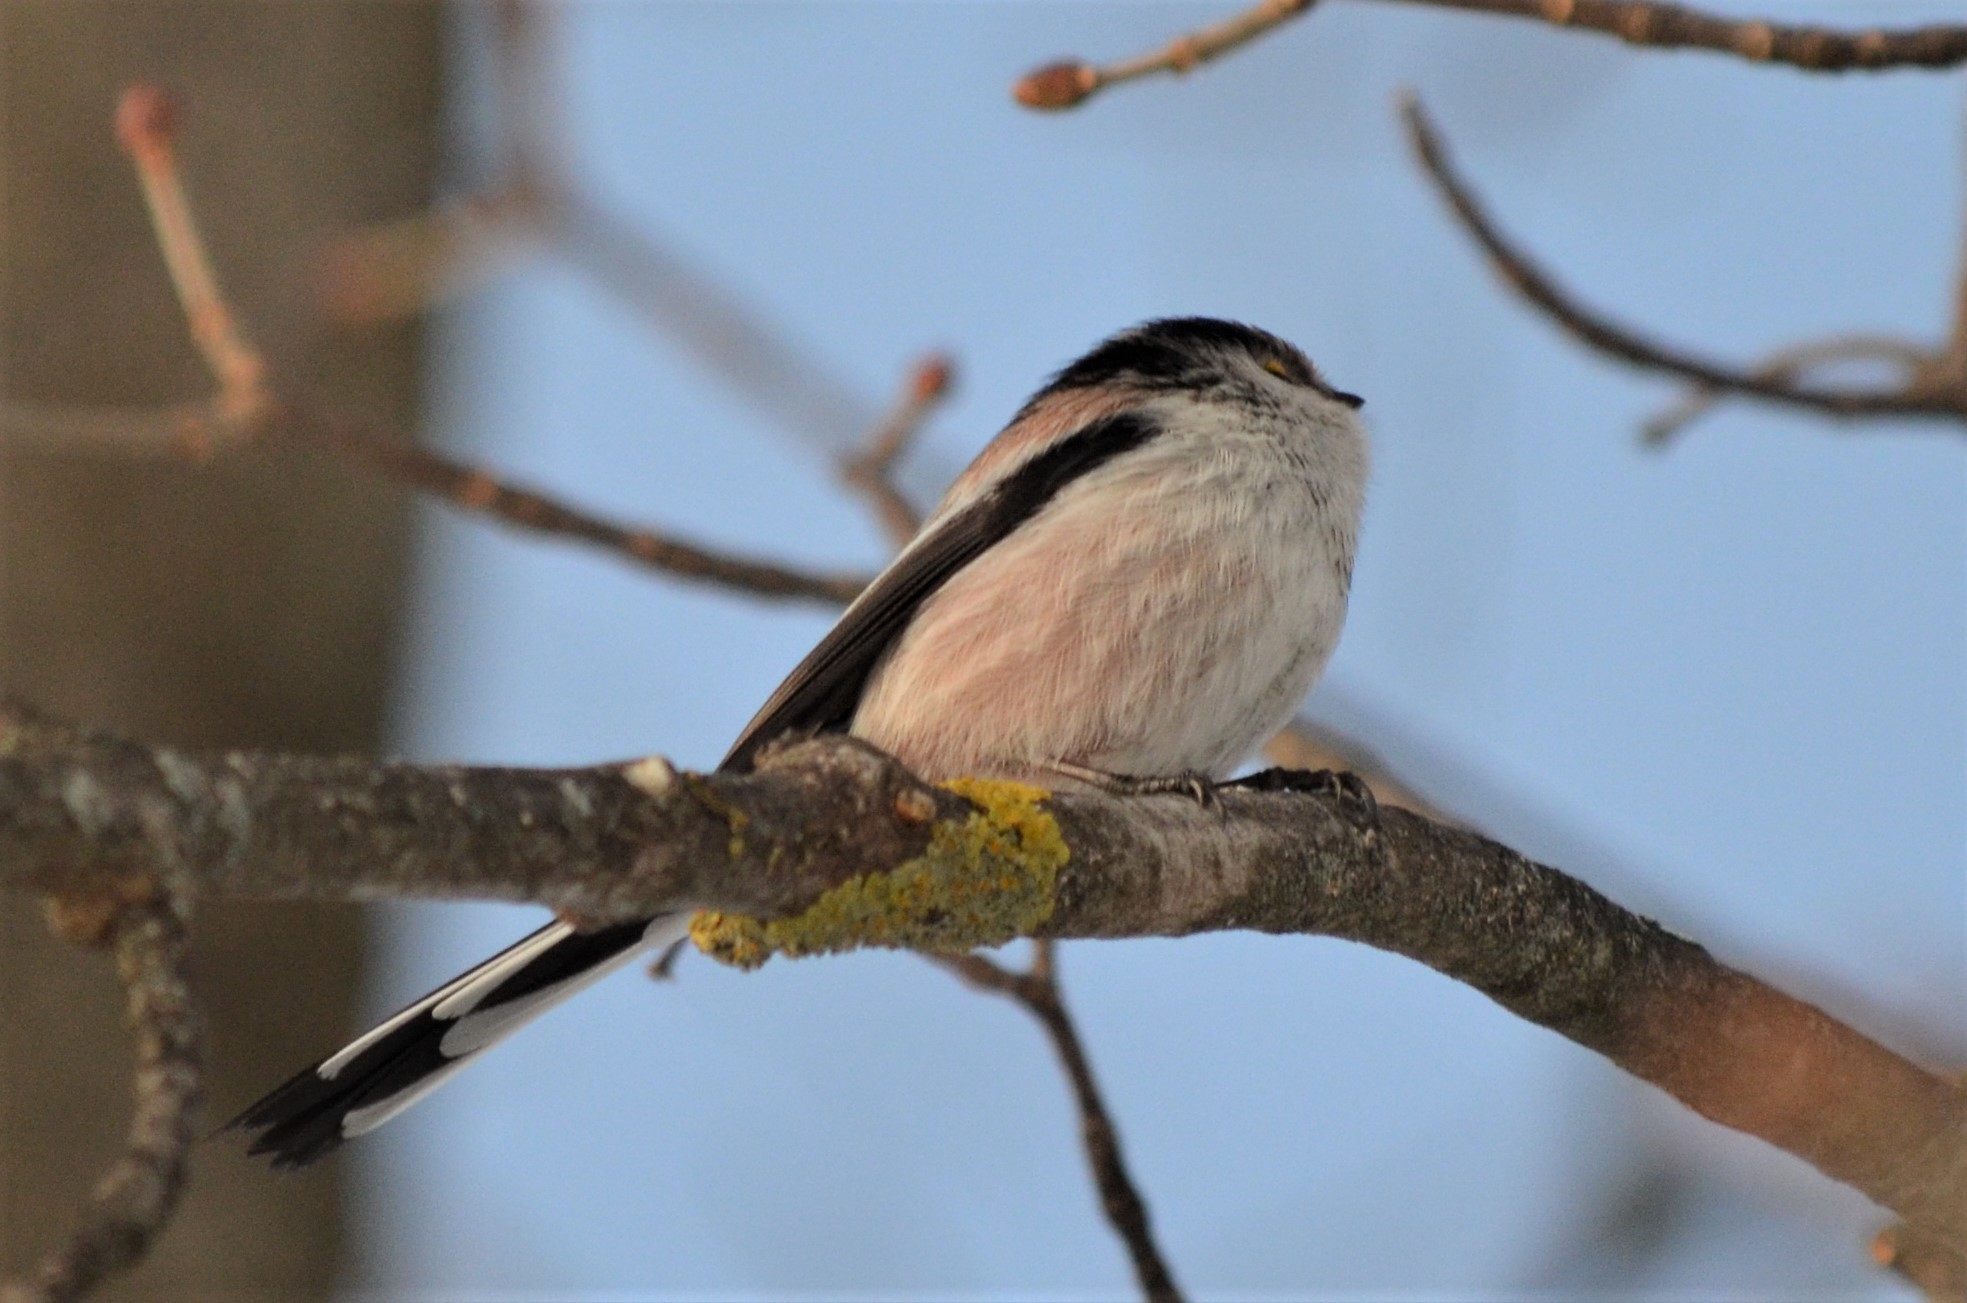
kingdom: Animalia
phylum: Chordata
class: Aves
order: Passeriformes
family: Aegithalidae
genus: Aegithalos
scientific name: Aegithalos caudatus
